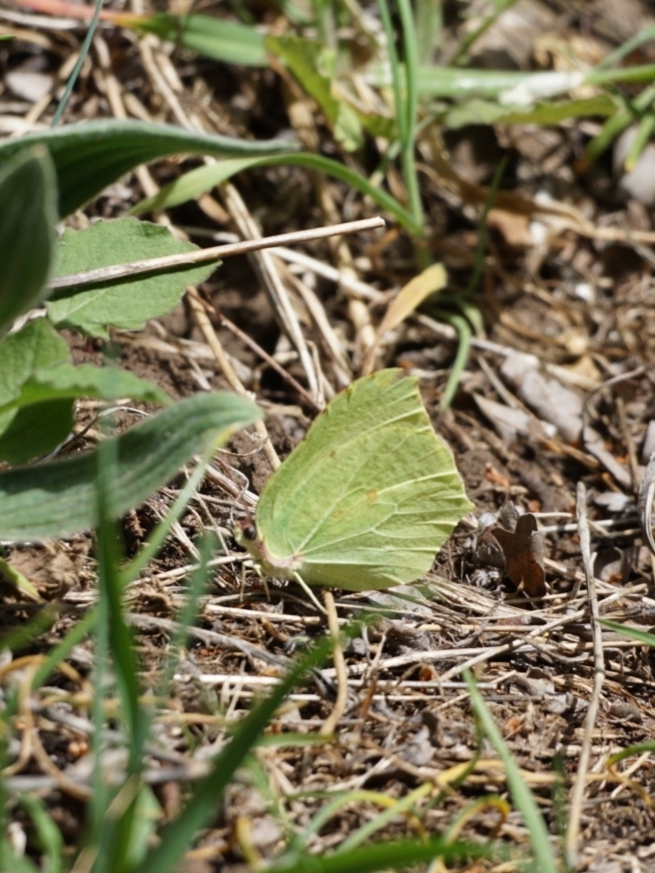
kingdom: Animalia
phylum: Arthropoda
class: Insecta
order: Lepidoptera
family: Pieridae
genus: Gonepteryx
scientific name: Gonepteryx rhamni
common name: Brimstone
